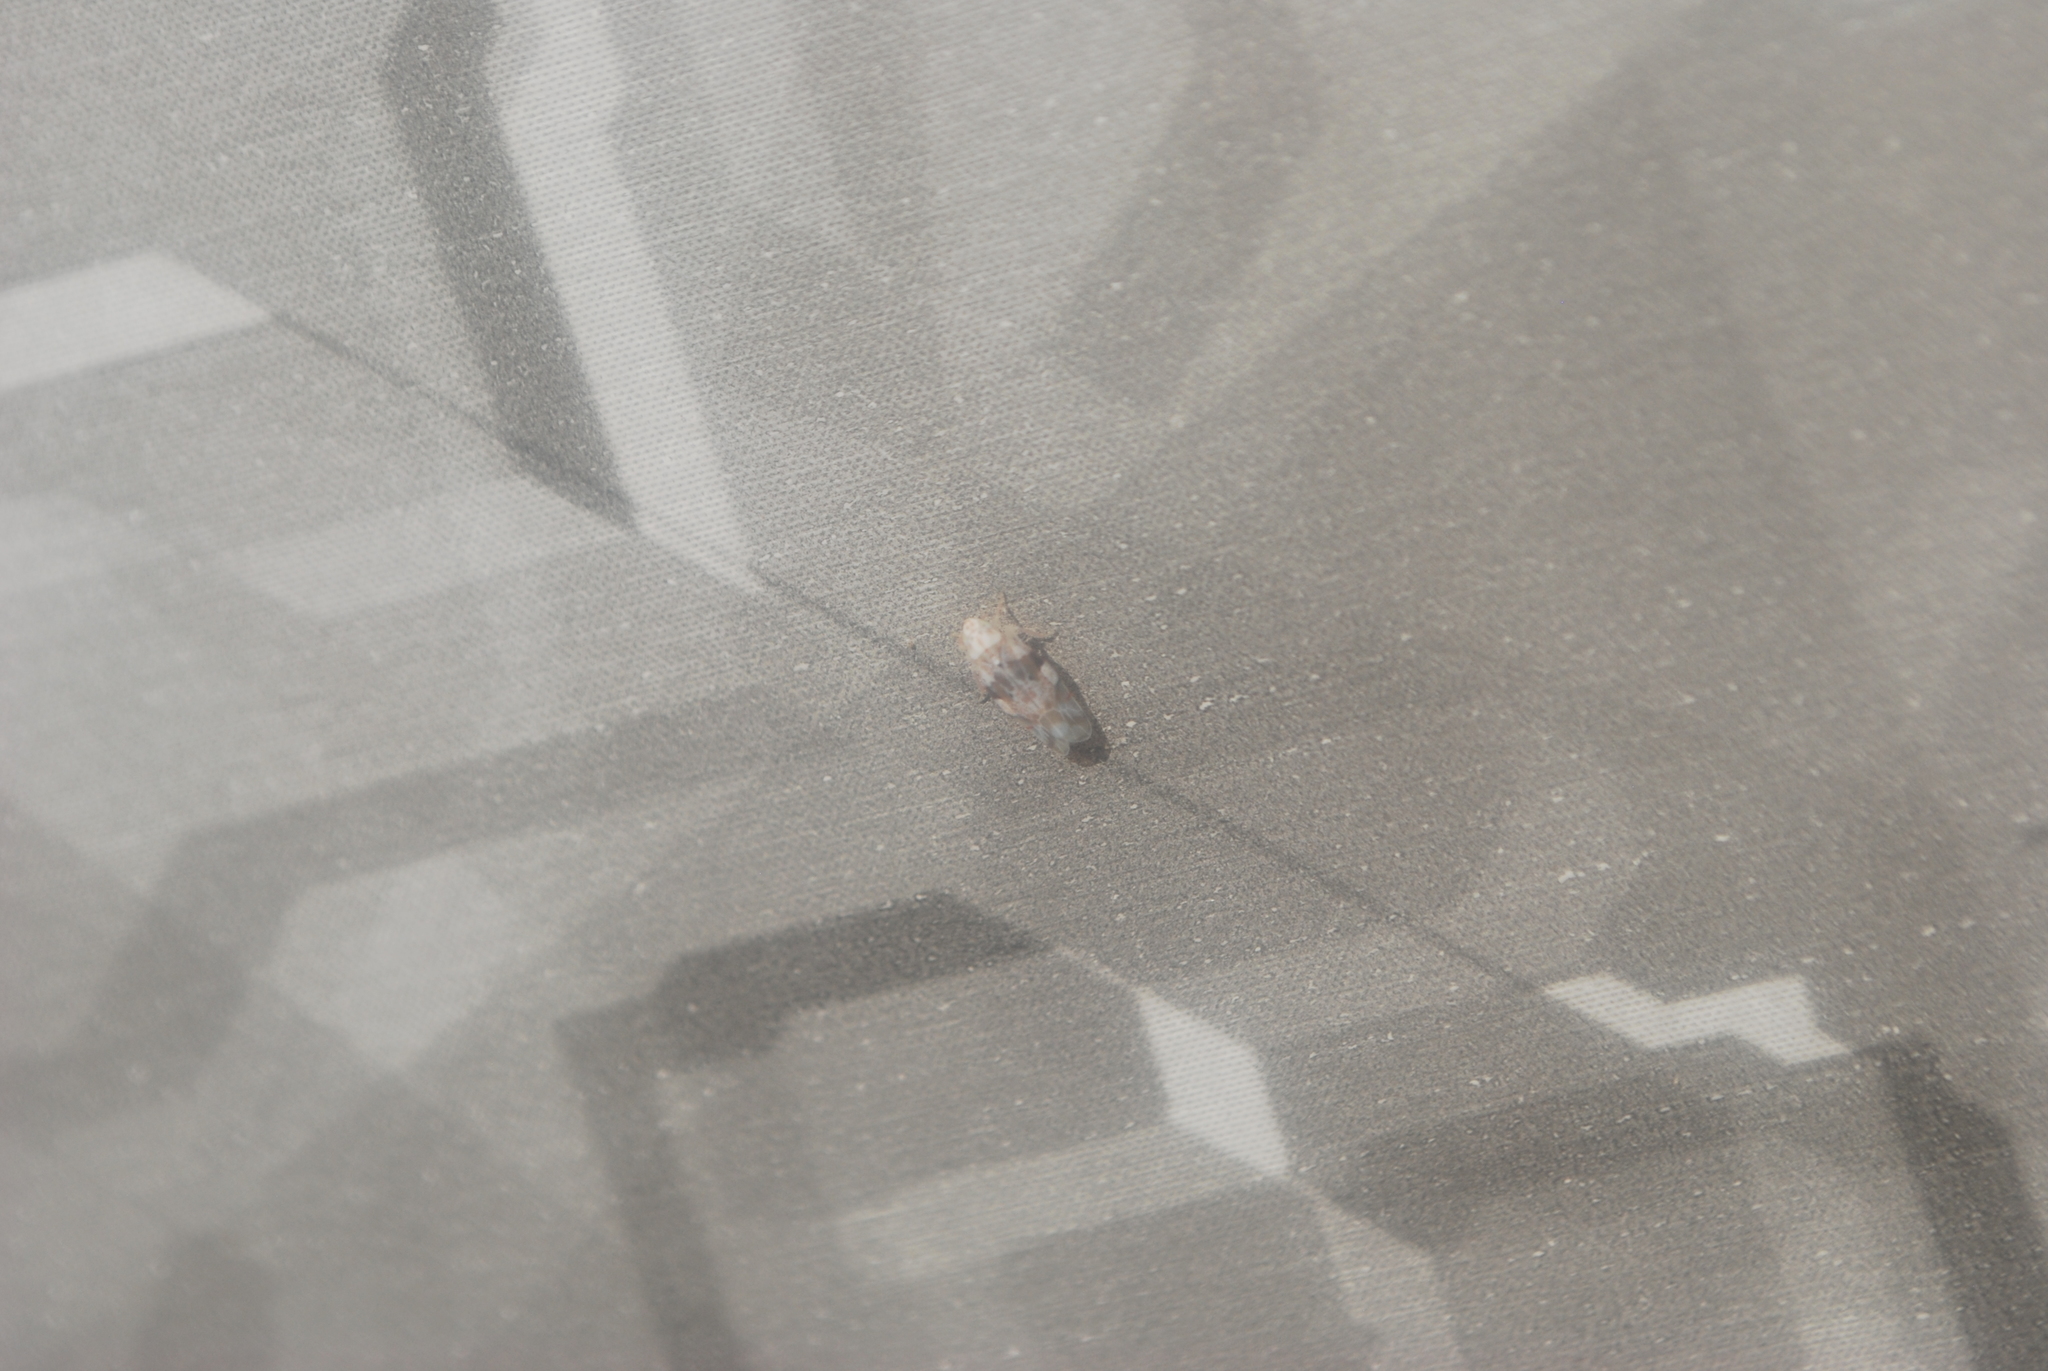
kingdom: Animalia
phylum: Arthropoda
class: Insecta
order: Hemiptera
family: Cicadellidae
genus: Hymetta
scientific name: Hymetta balteata
